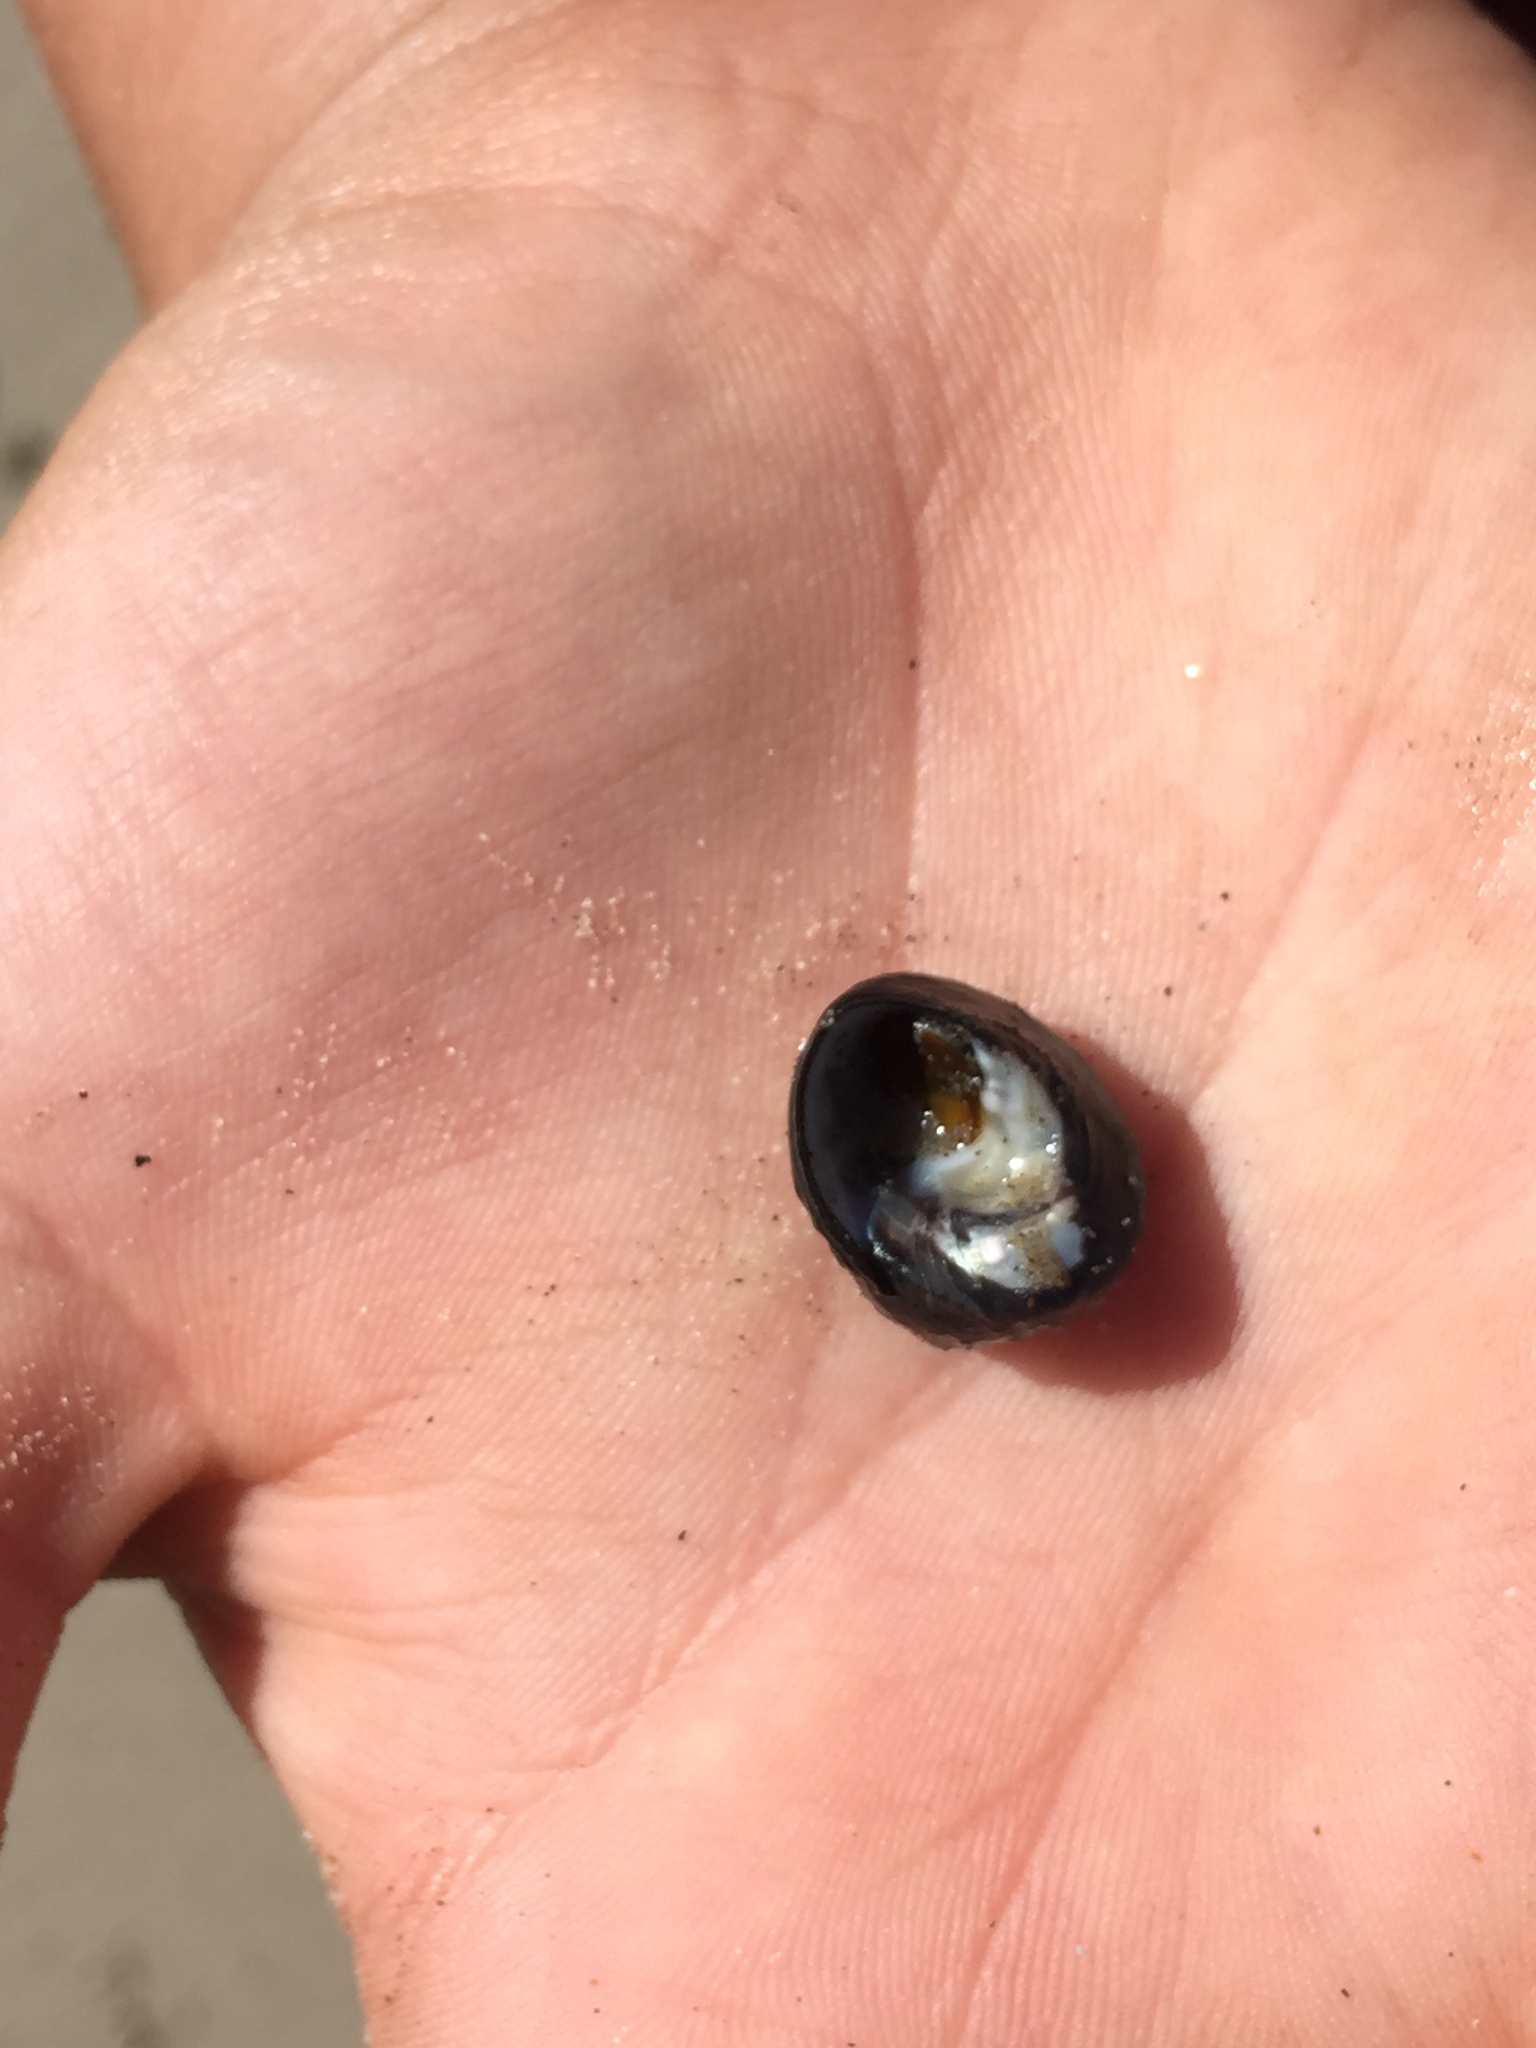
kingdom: Animalia
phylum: Mollusca
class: Gastropoda
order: Trochida
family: Tegulidae
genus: Tegula
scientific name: Tegula funebralis
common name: Black tegula
